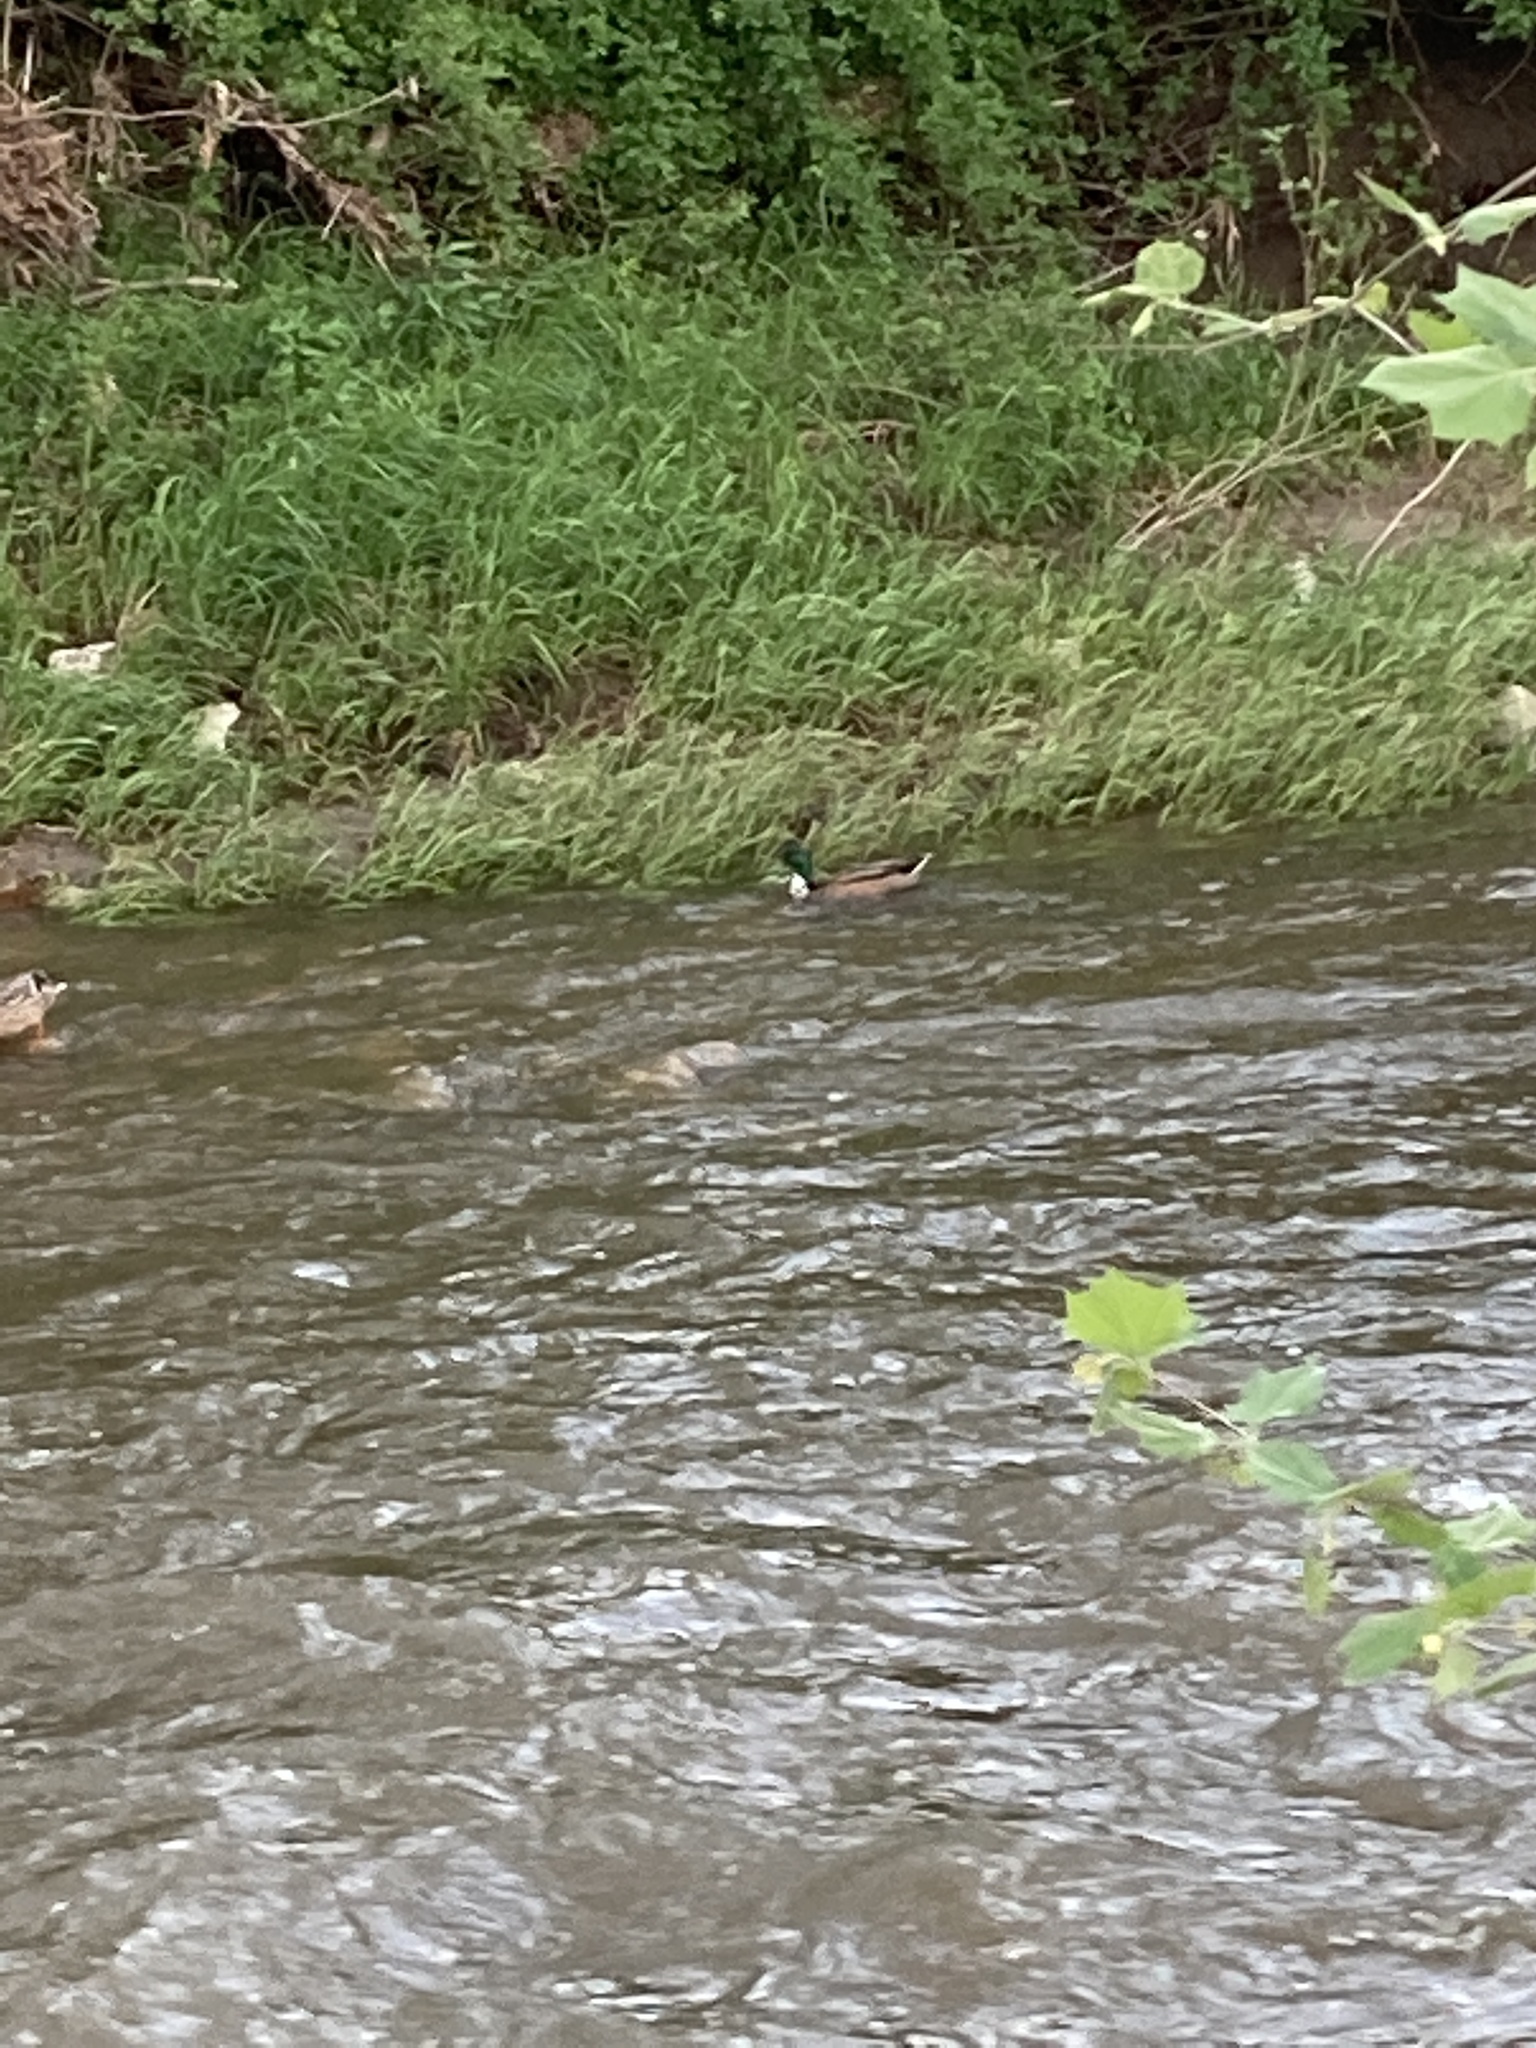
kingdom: Animalia
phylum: Chordata
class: Aves
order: Anseriformes
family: Anatidae
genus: Anas
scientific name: Anas platyrhynchos
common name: Mallard
